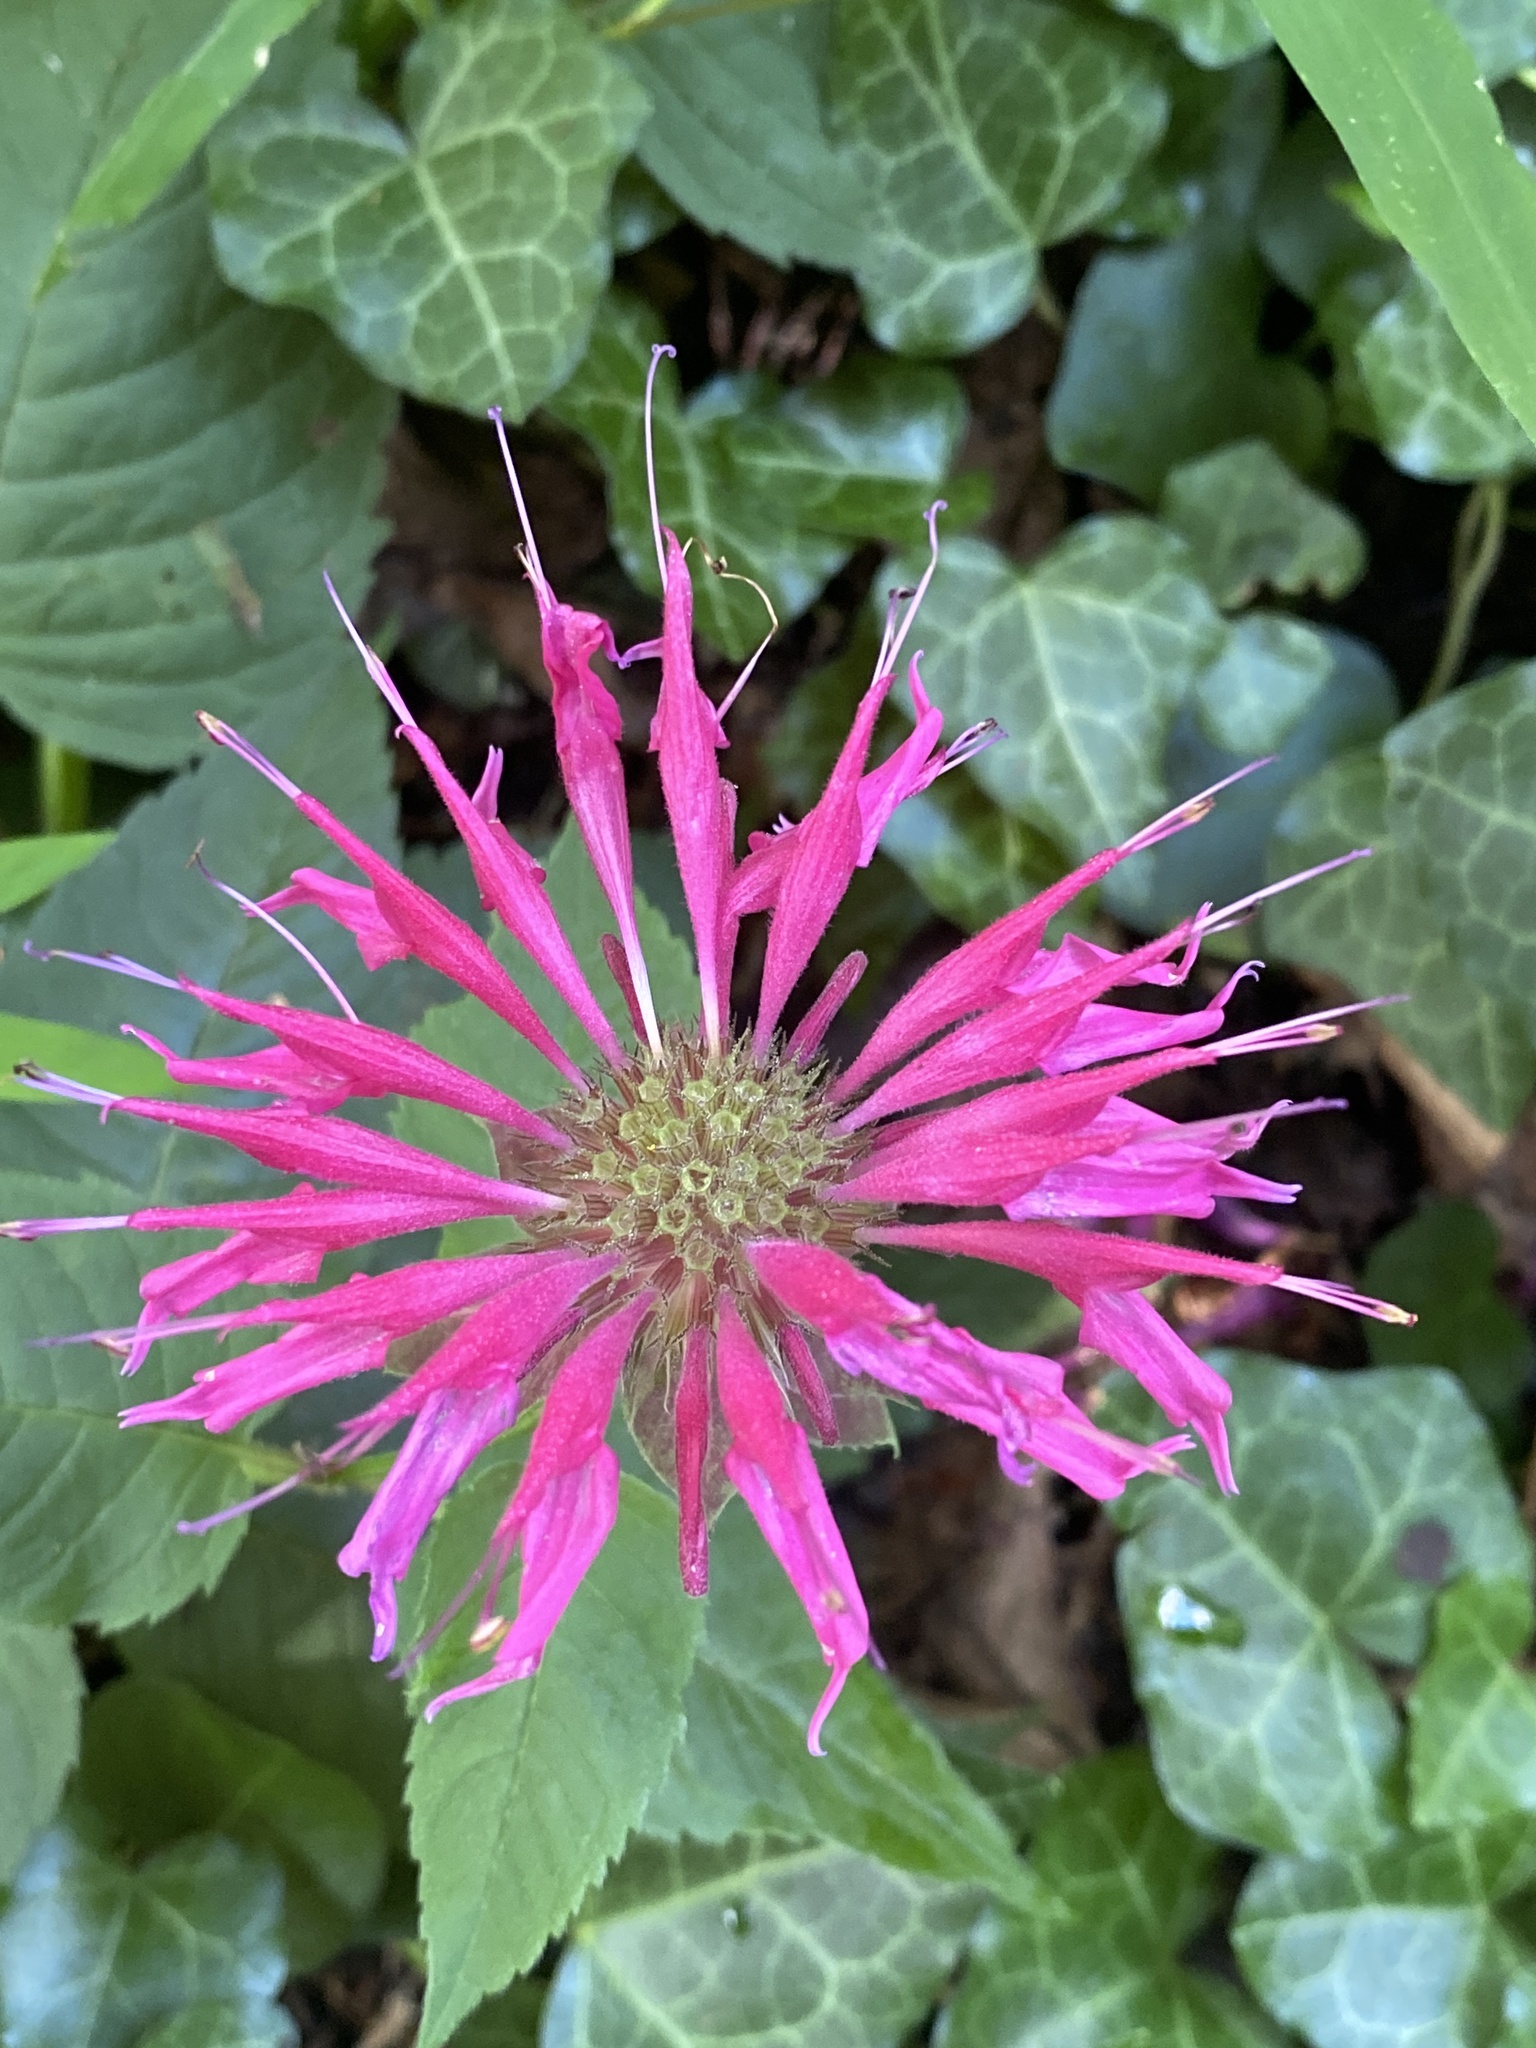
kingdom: Plantae
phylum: Tracheophyta
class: Magnoliopsida
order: Lamiales
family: Lamiaceae
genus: Monarda
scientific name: Monarda didyma
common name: Beebalm
